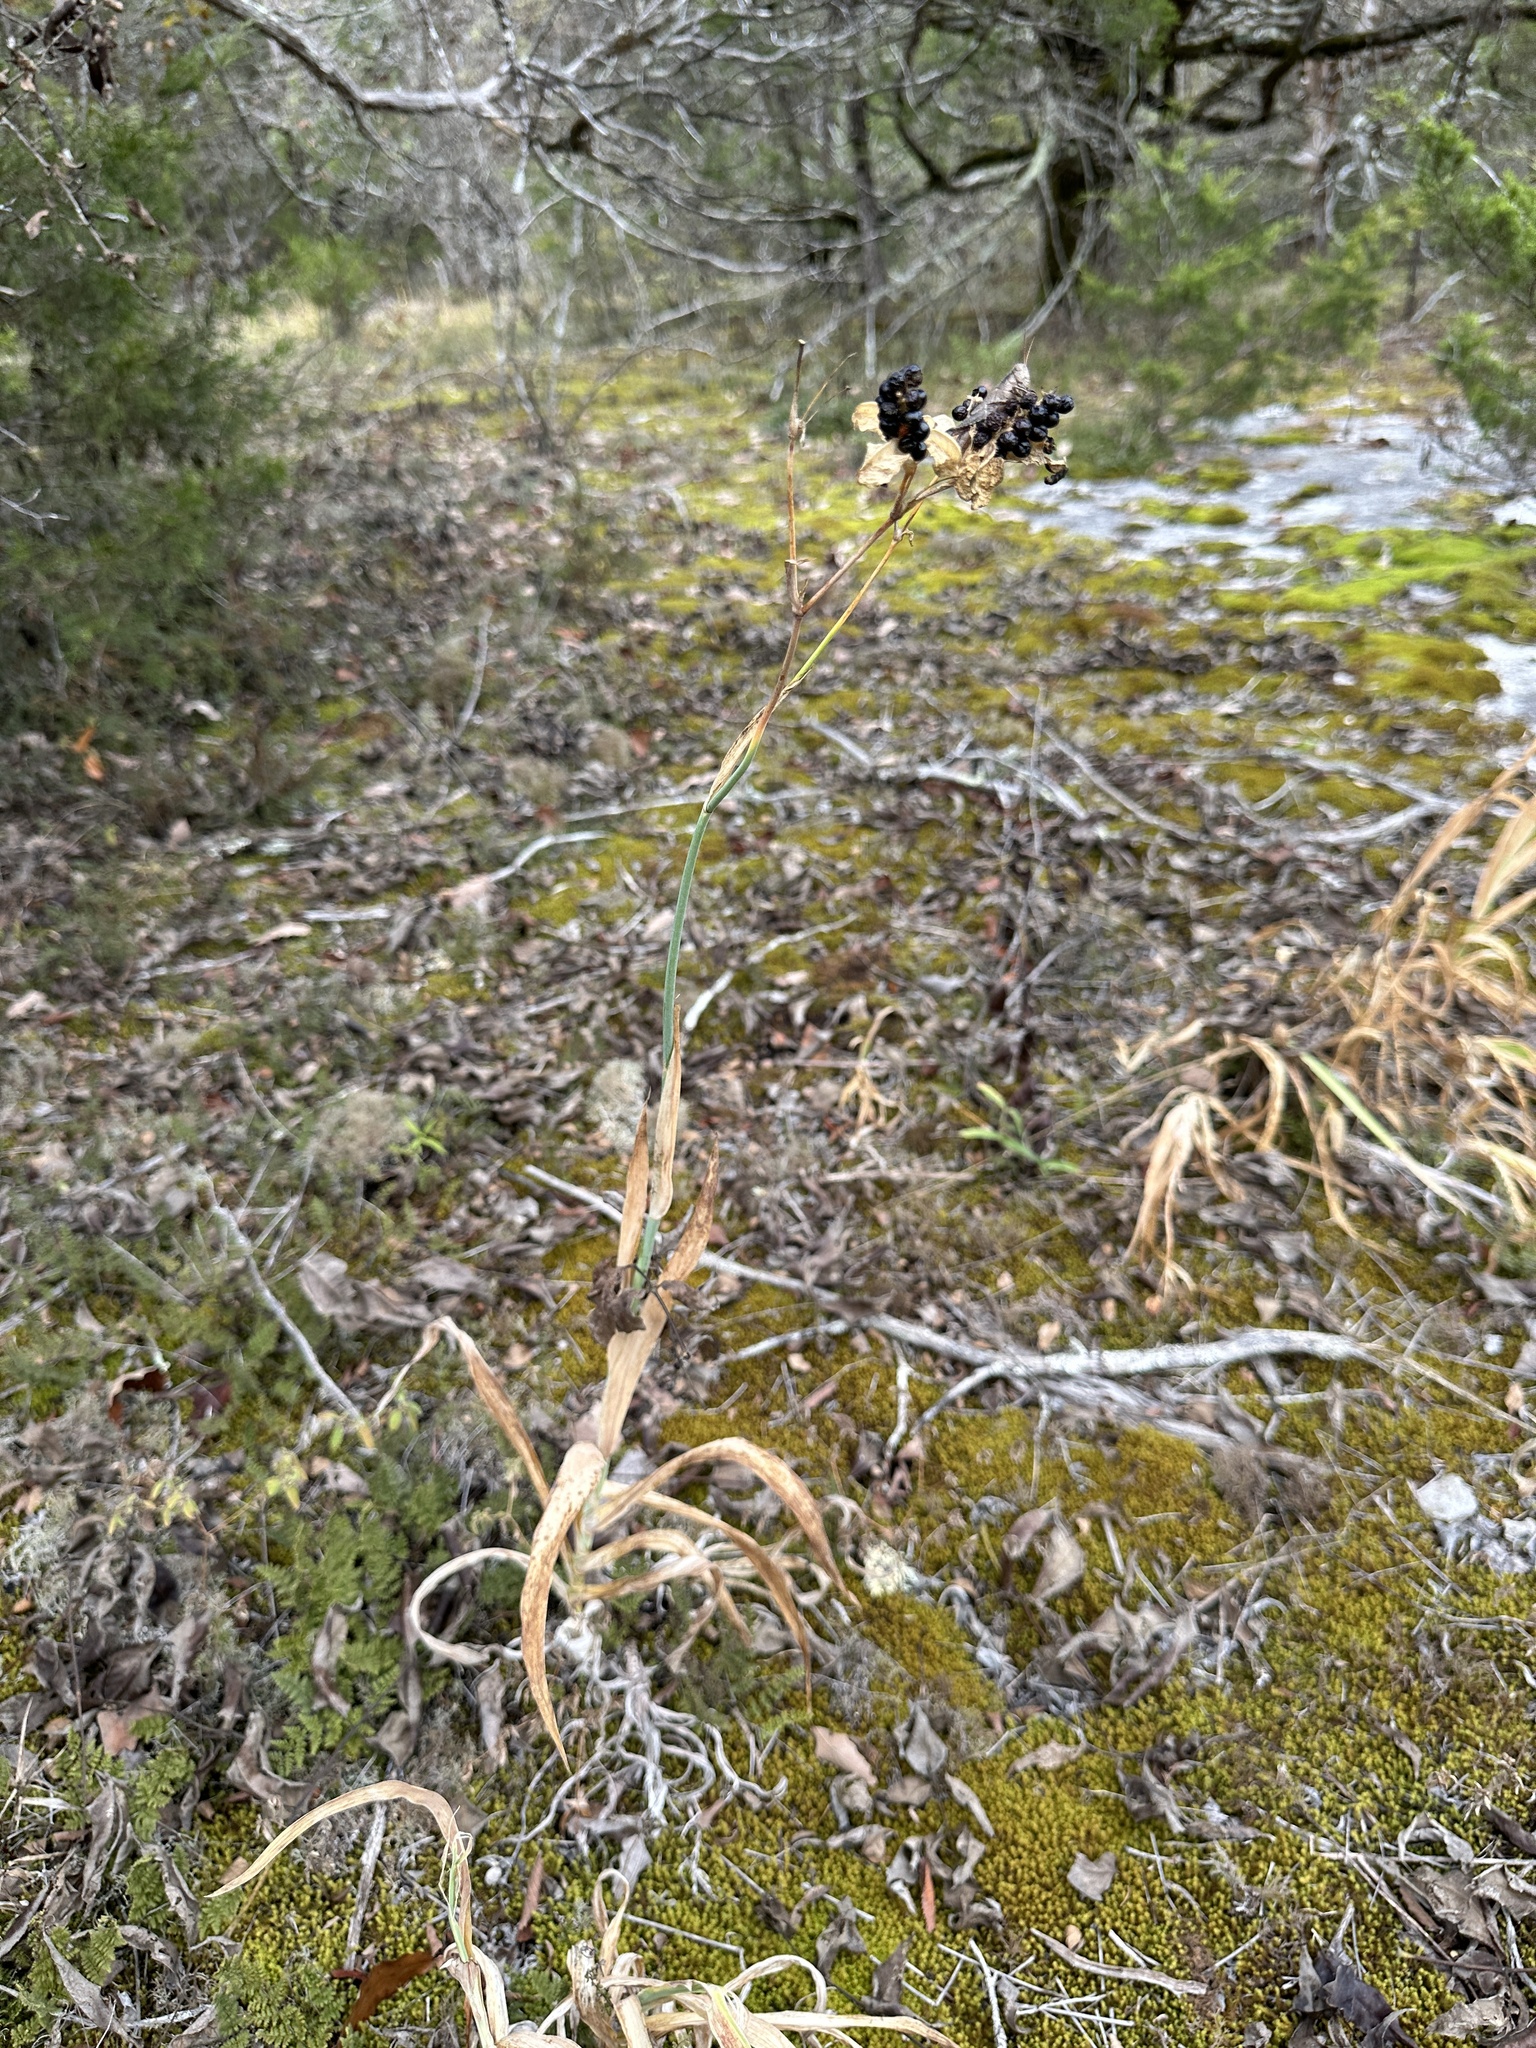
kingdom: Plantae
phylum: Tracheophyta
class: Liliopsida
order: Asparagales
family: Iridaceae
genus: Iris
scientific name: Iris domestica
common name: Belamcanda
